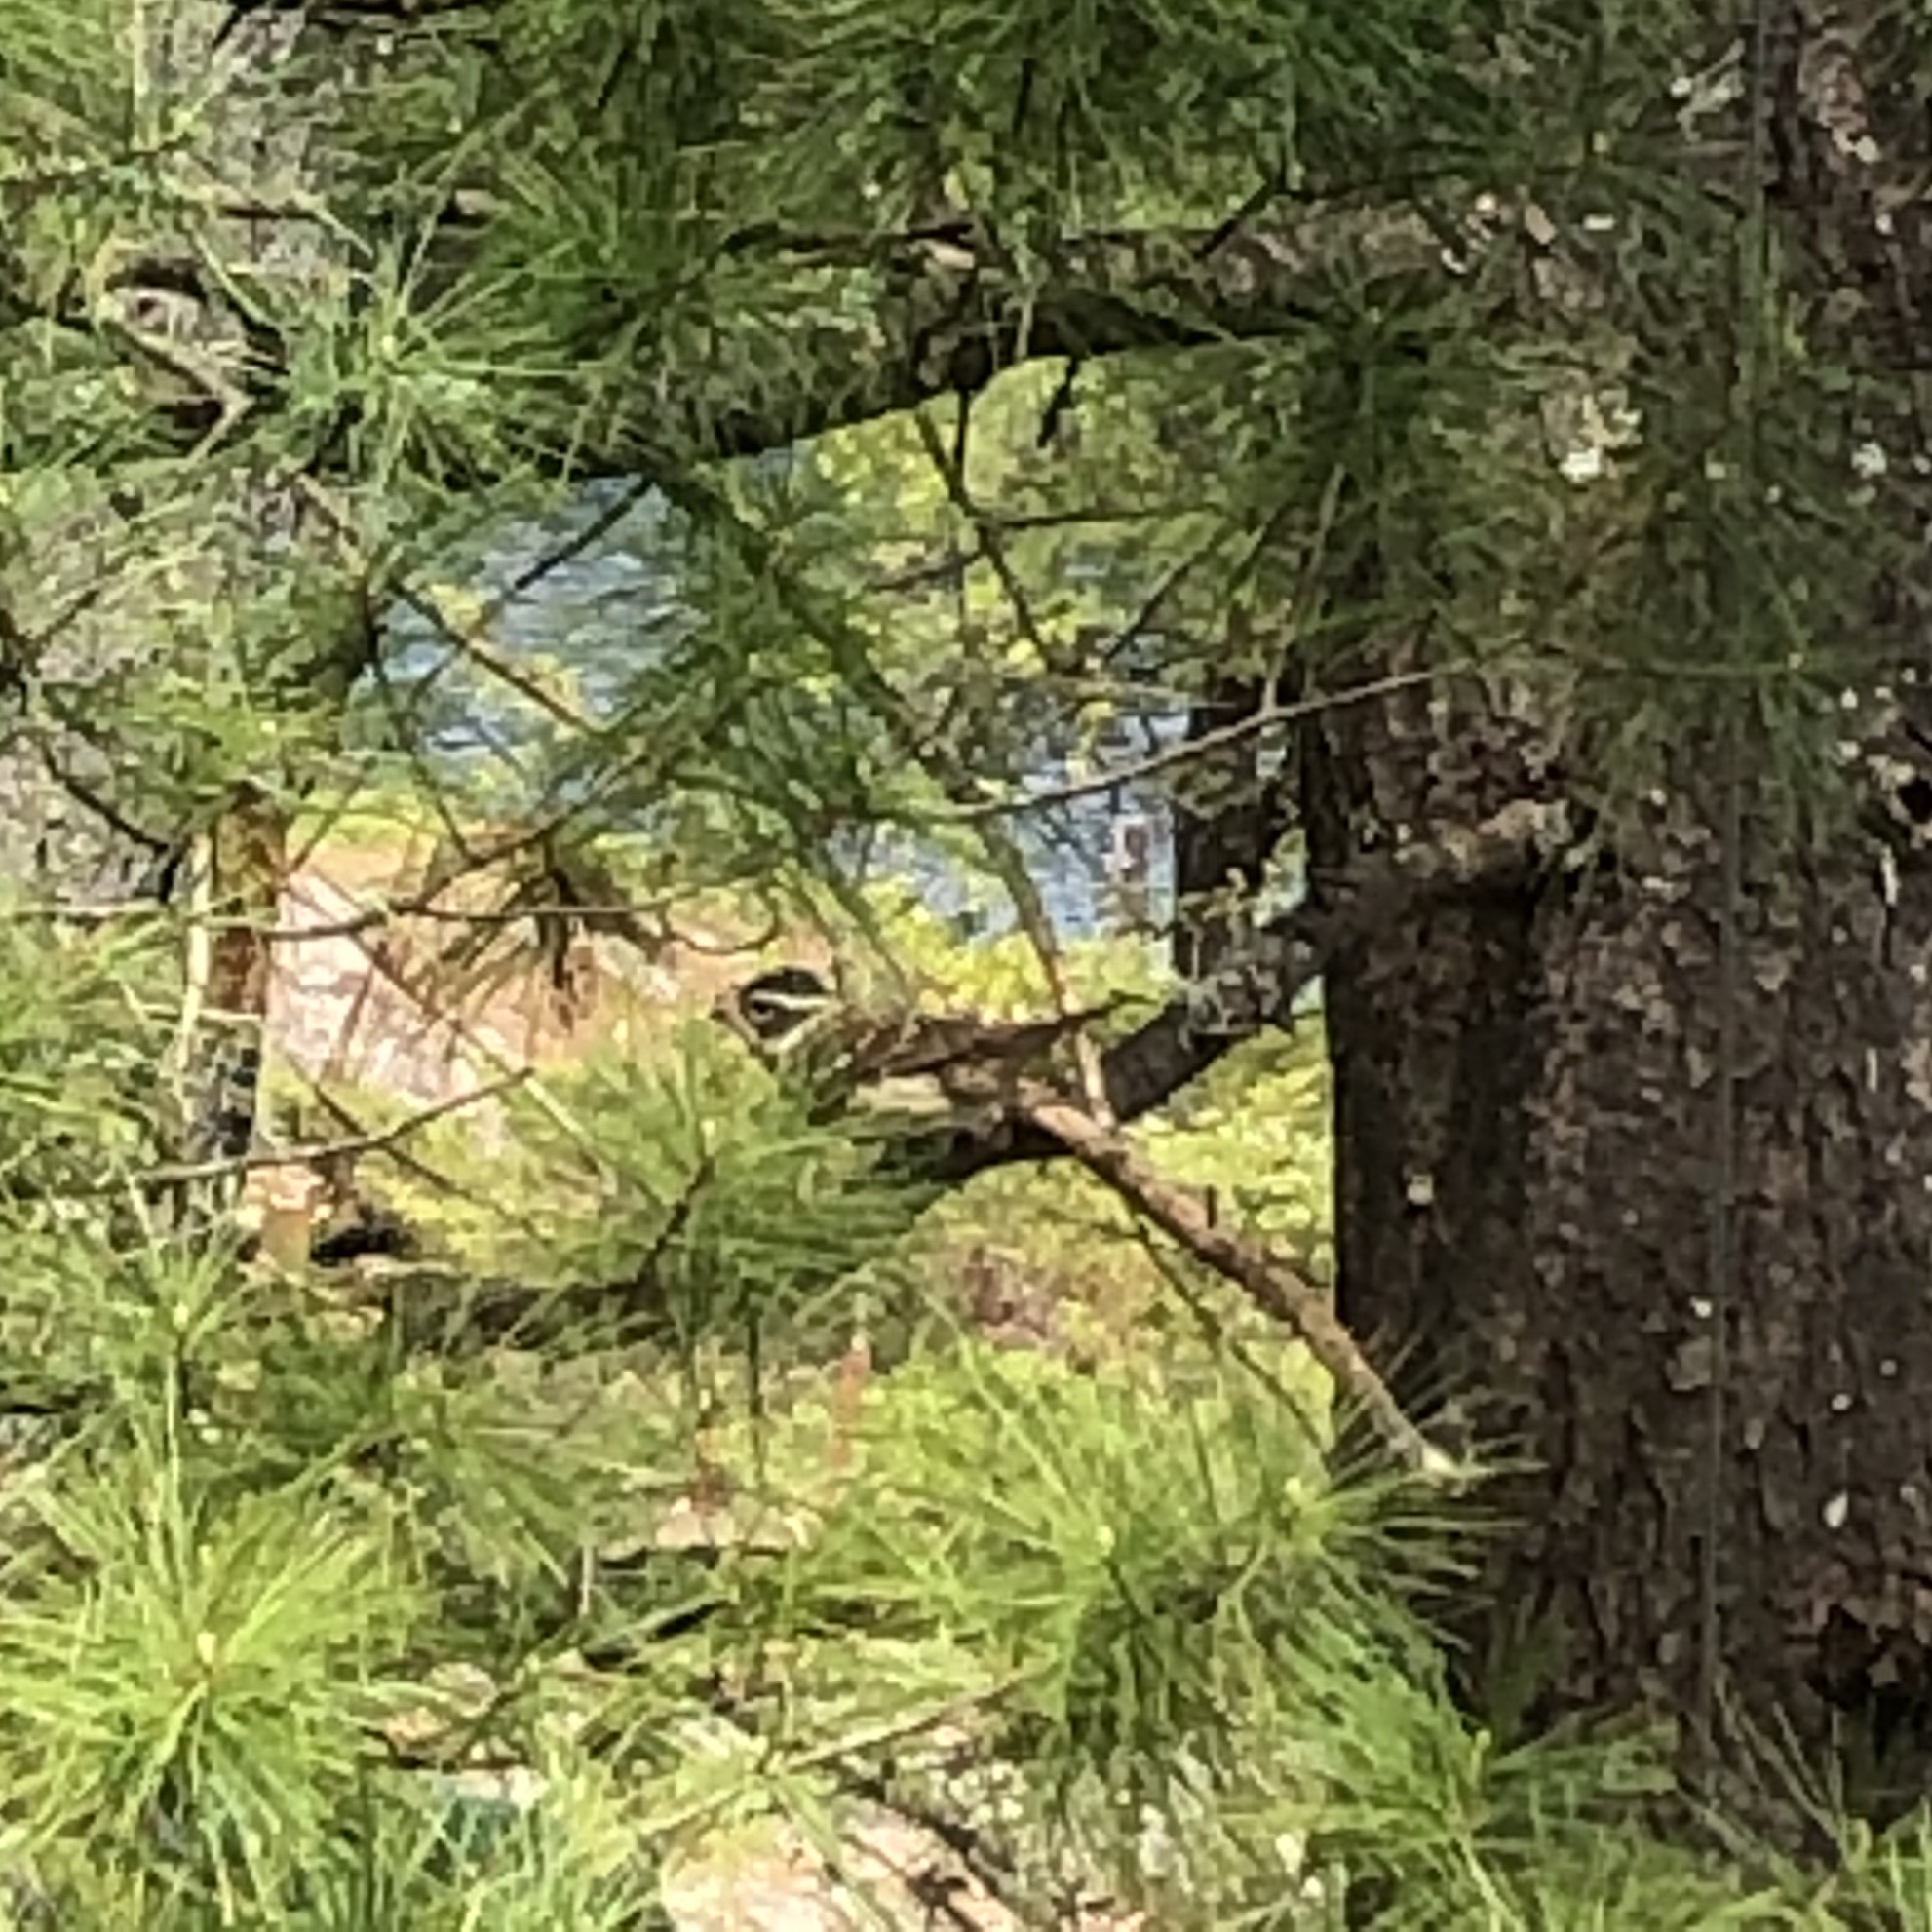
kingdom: Animalia
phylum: Chordata
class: Aves
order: Passeriformes
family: Cardinalidae
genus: Pheucticus
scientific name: Pheucticus ludovicianus
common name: Rose-breasted grosbeak
